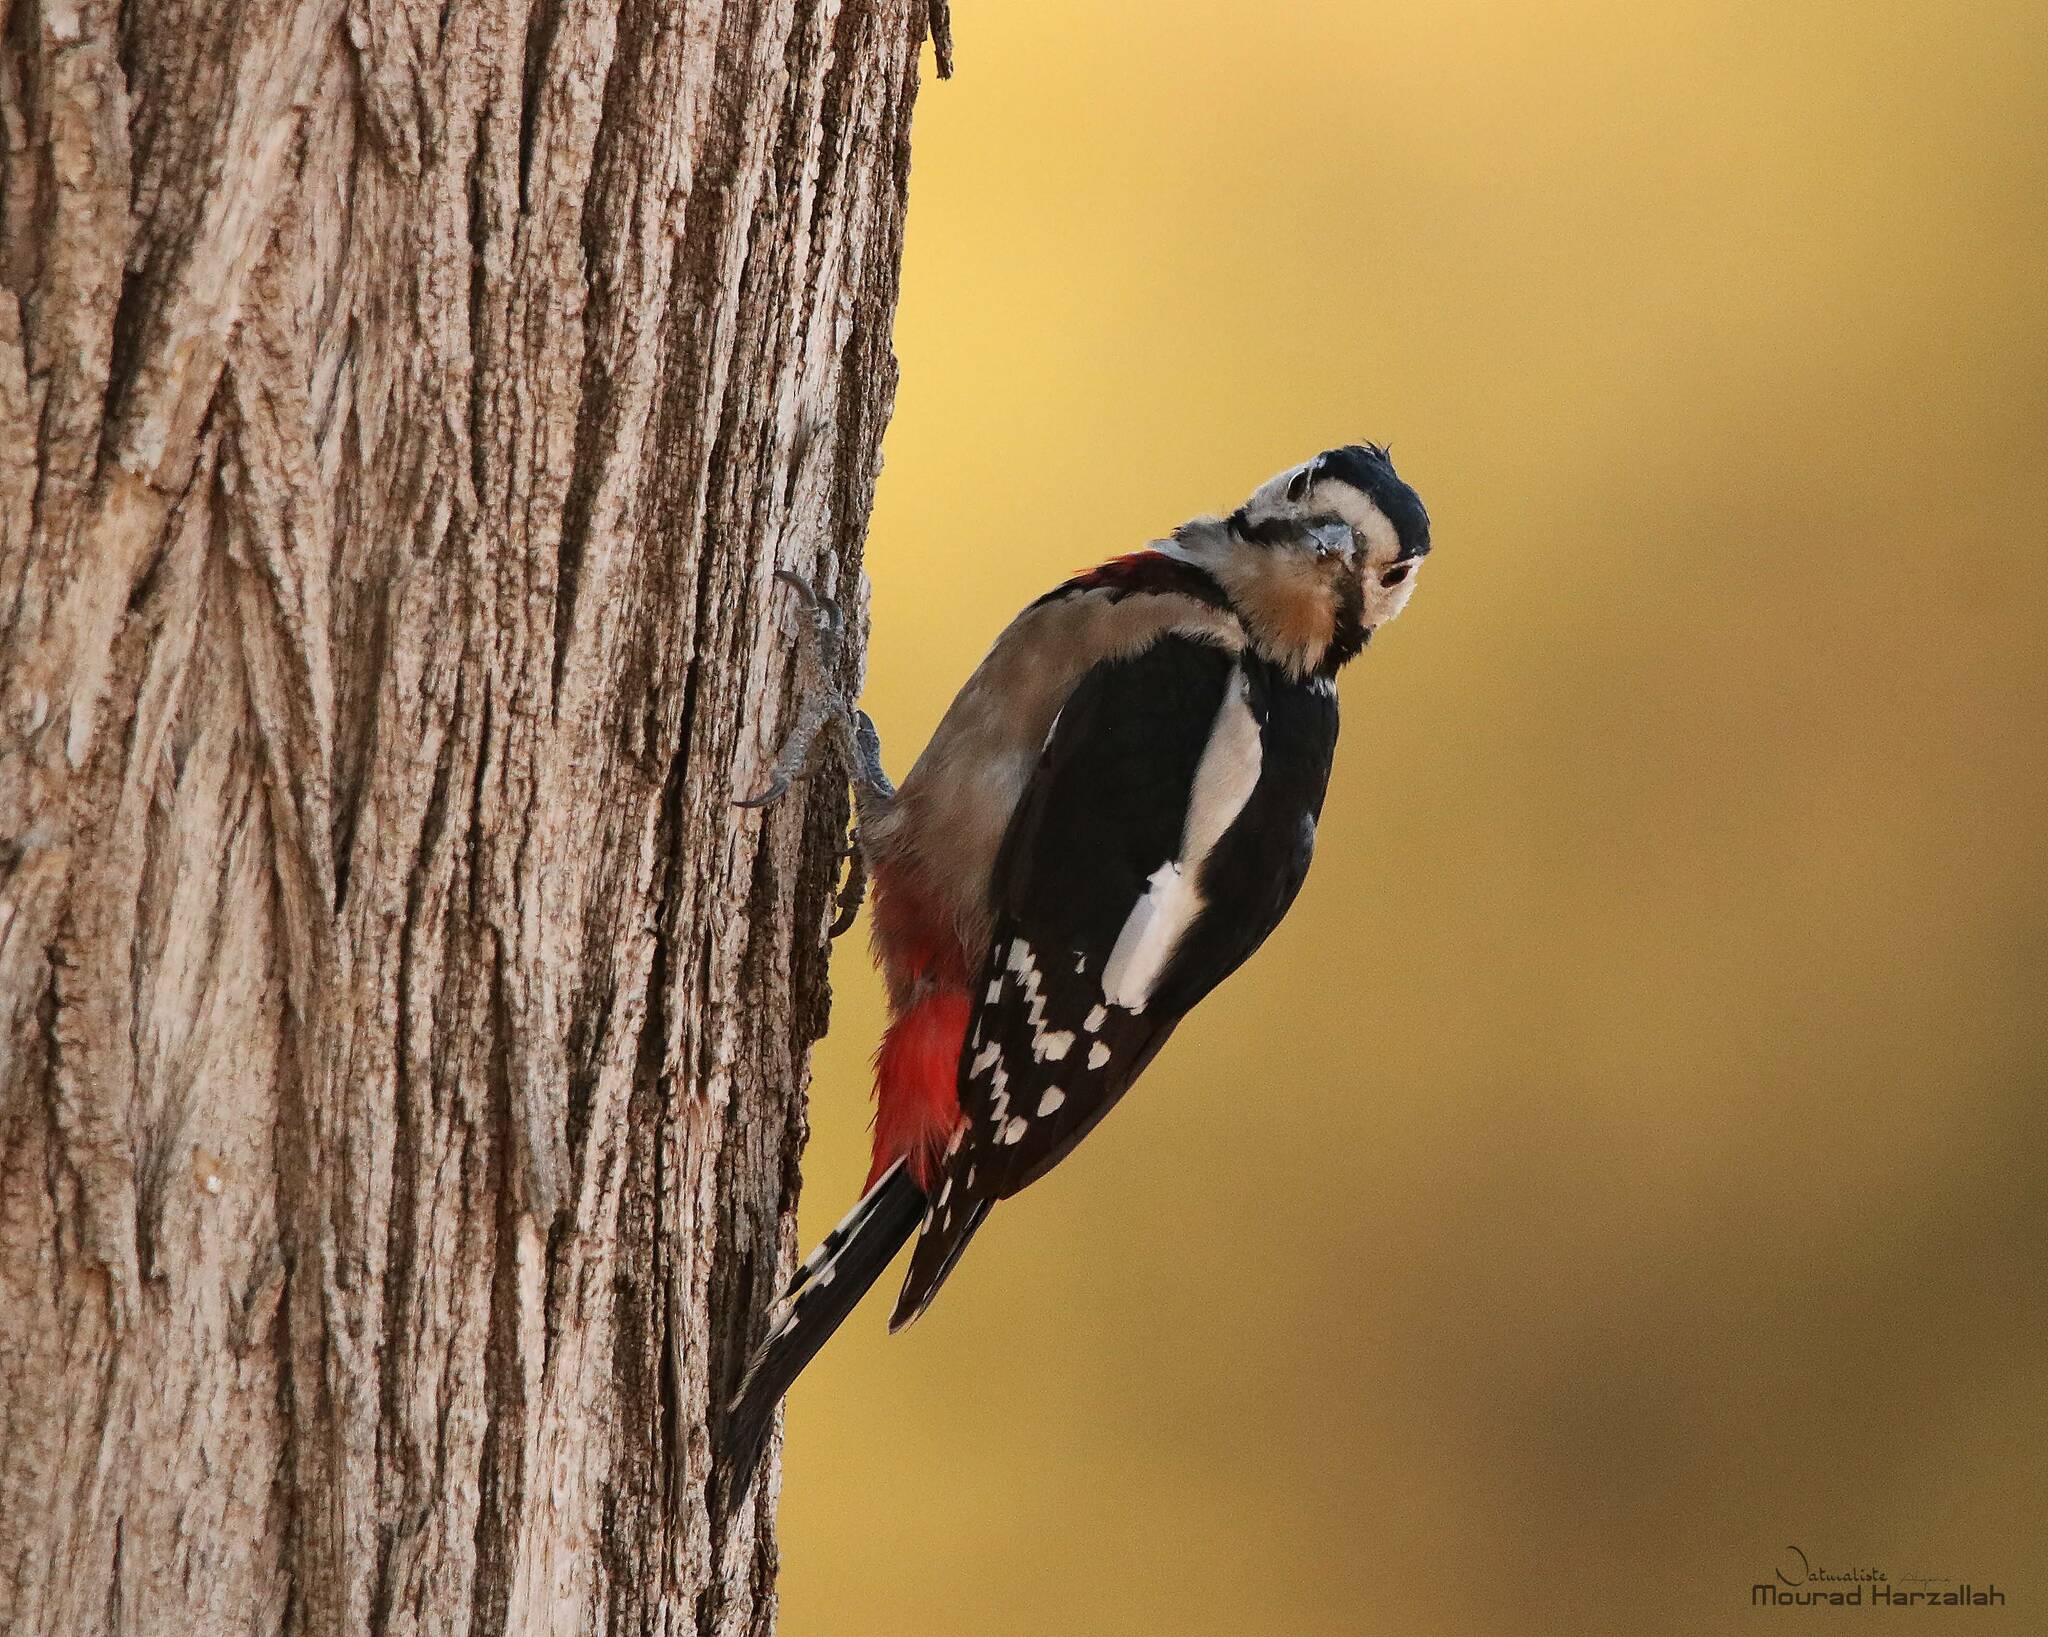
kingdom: Animalia
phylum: Chordata
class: Aves
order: Piciformes
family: Picidae
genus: Dendrocopos
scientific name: Dendrocopos major
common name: Great spotted woodpecker
